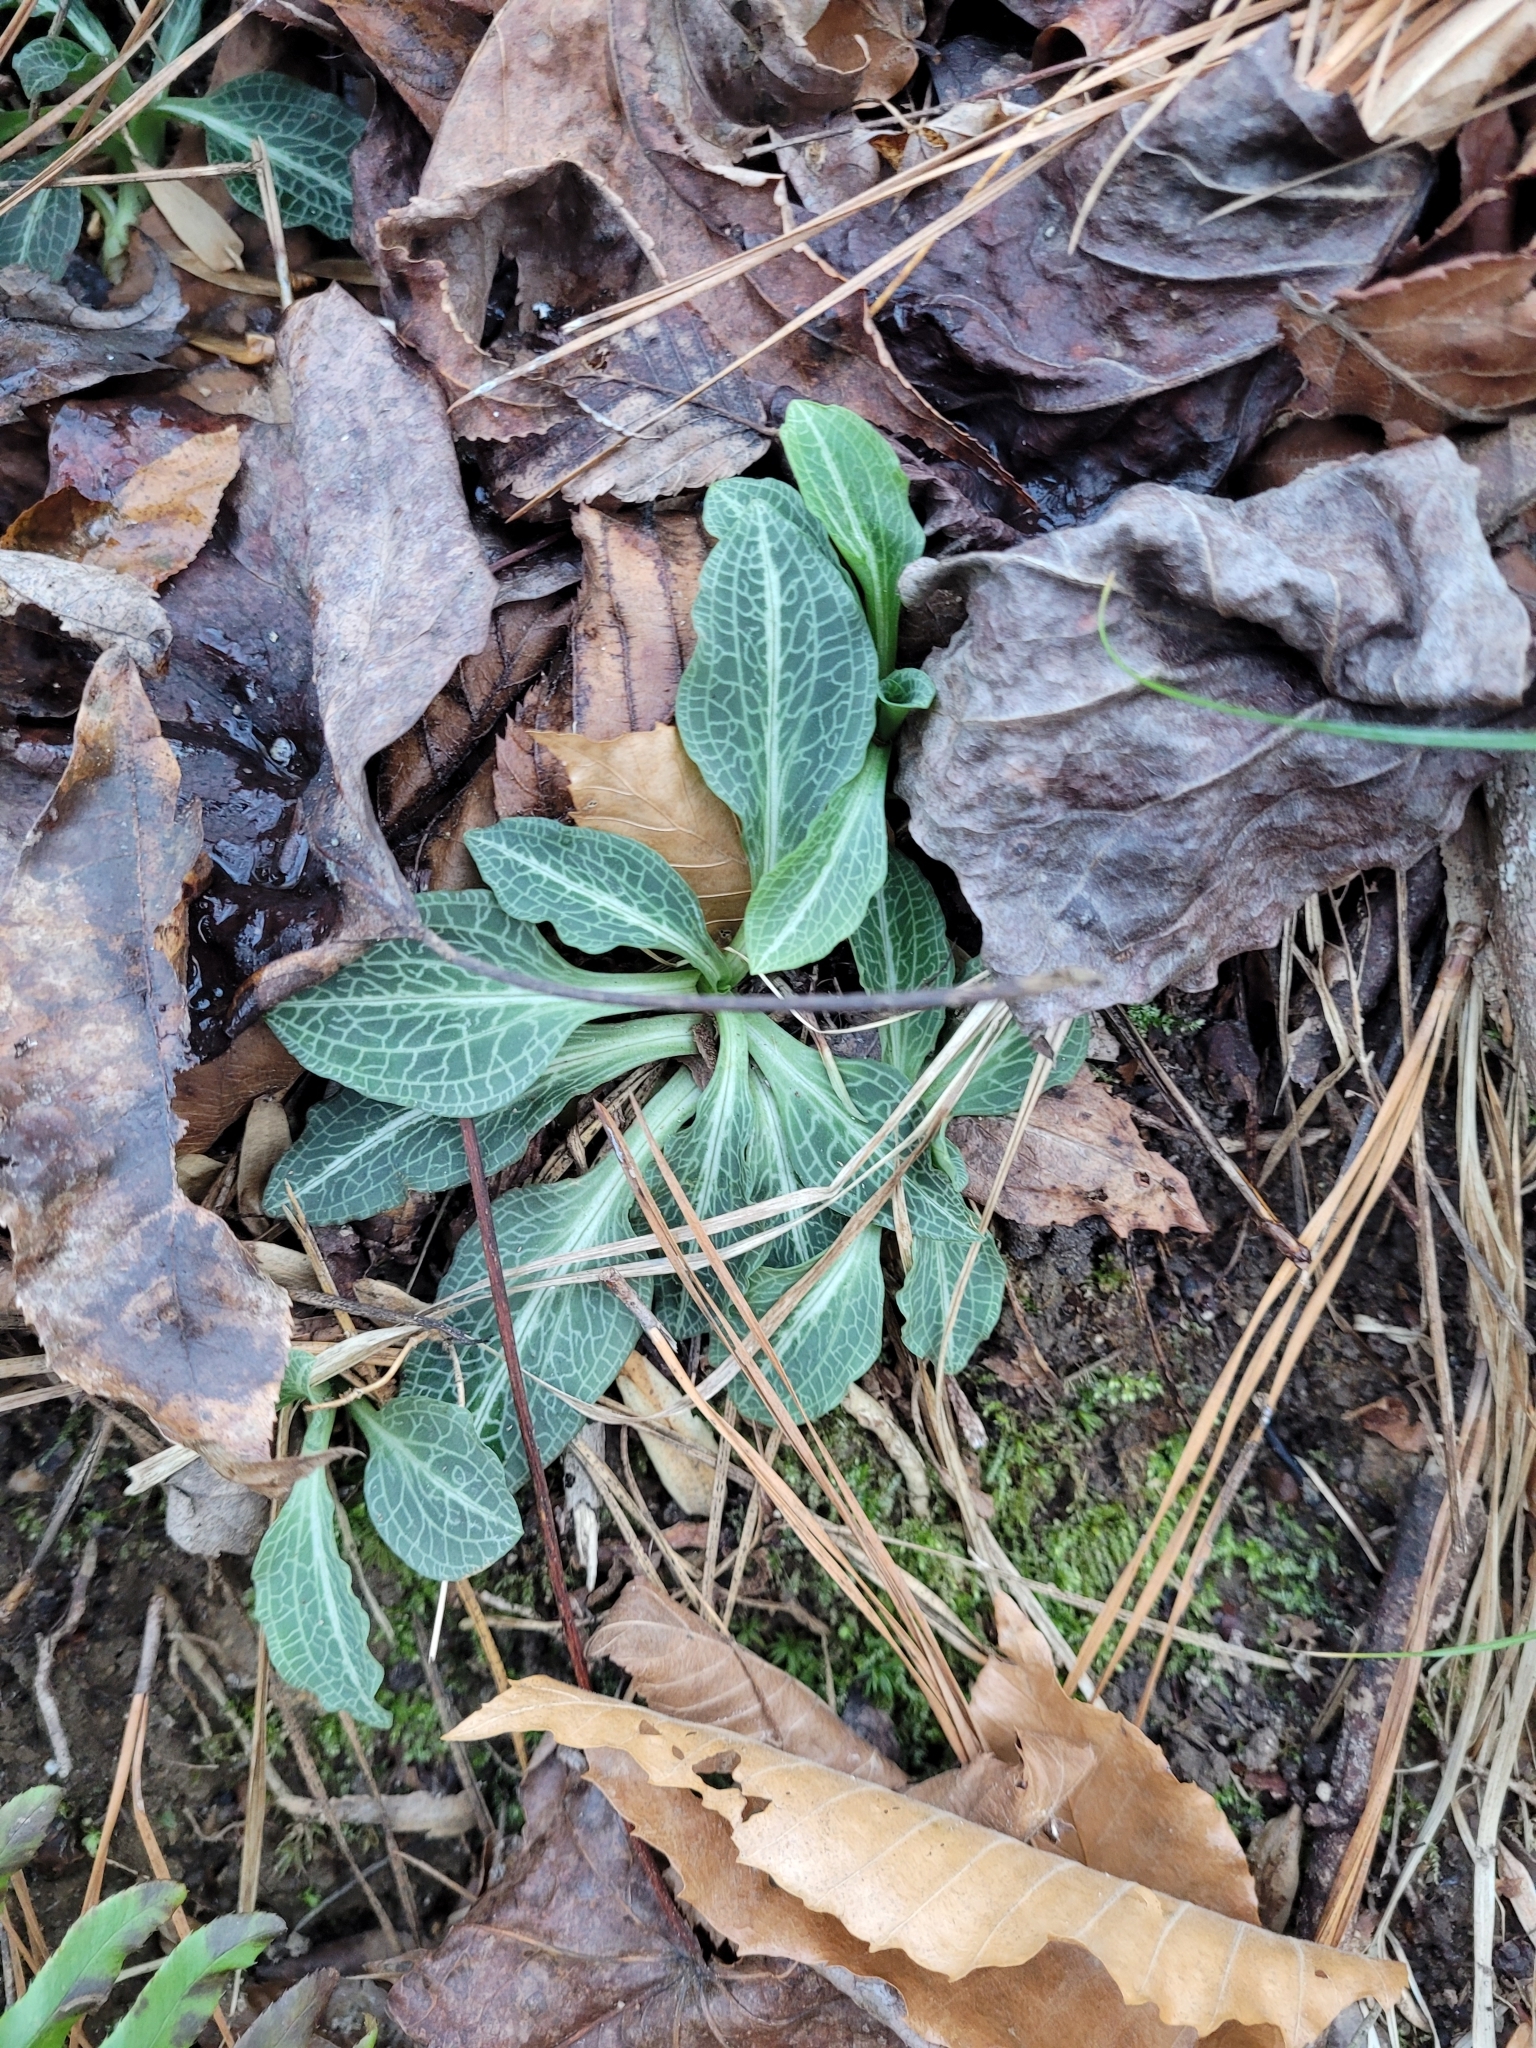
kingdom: Plantae
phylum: Tracheophyta
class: Liliopsida
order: Asparagales
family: Orchidaceae
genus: Goodyera
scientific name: Goodyera pubescens
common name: Downy rattlesnake-plantain
